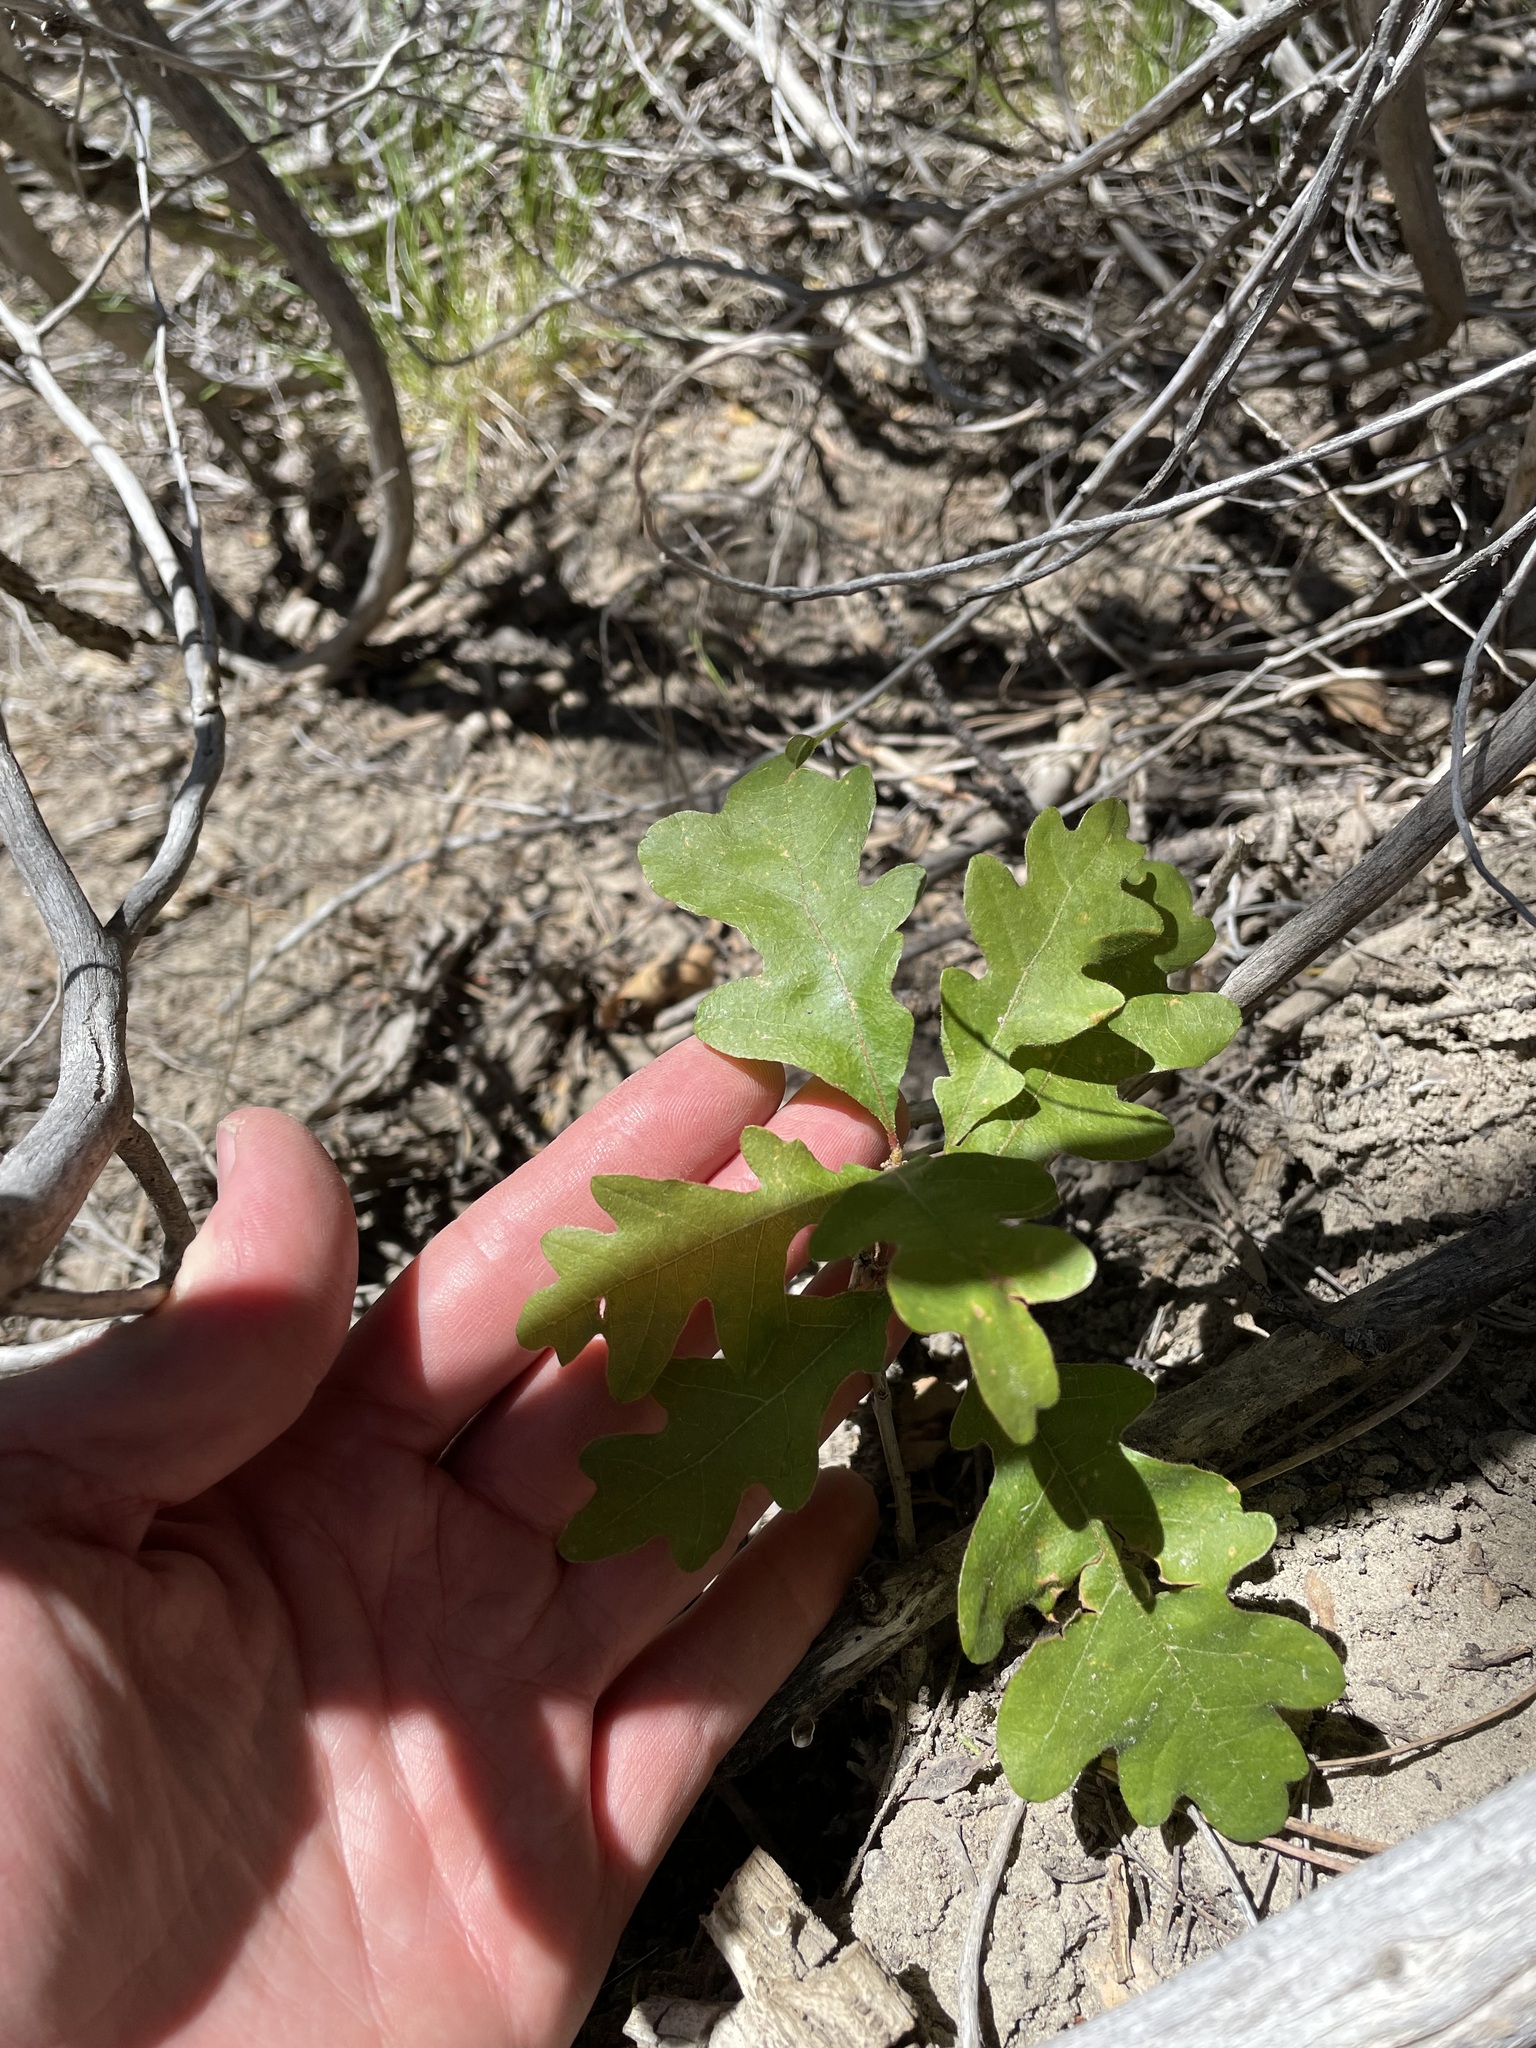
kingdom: Plantae
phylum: Tracheophyta
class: Magnoliopsida
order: Fagales
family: Fagaceae
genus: Quercus
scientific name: Quercus gambelii
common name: Gambel oak
